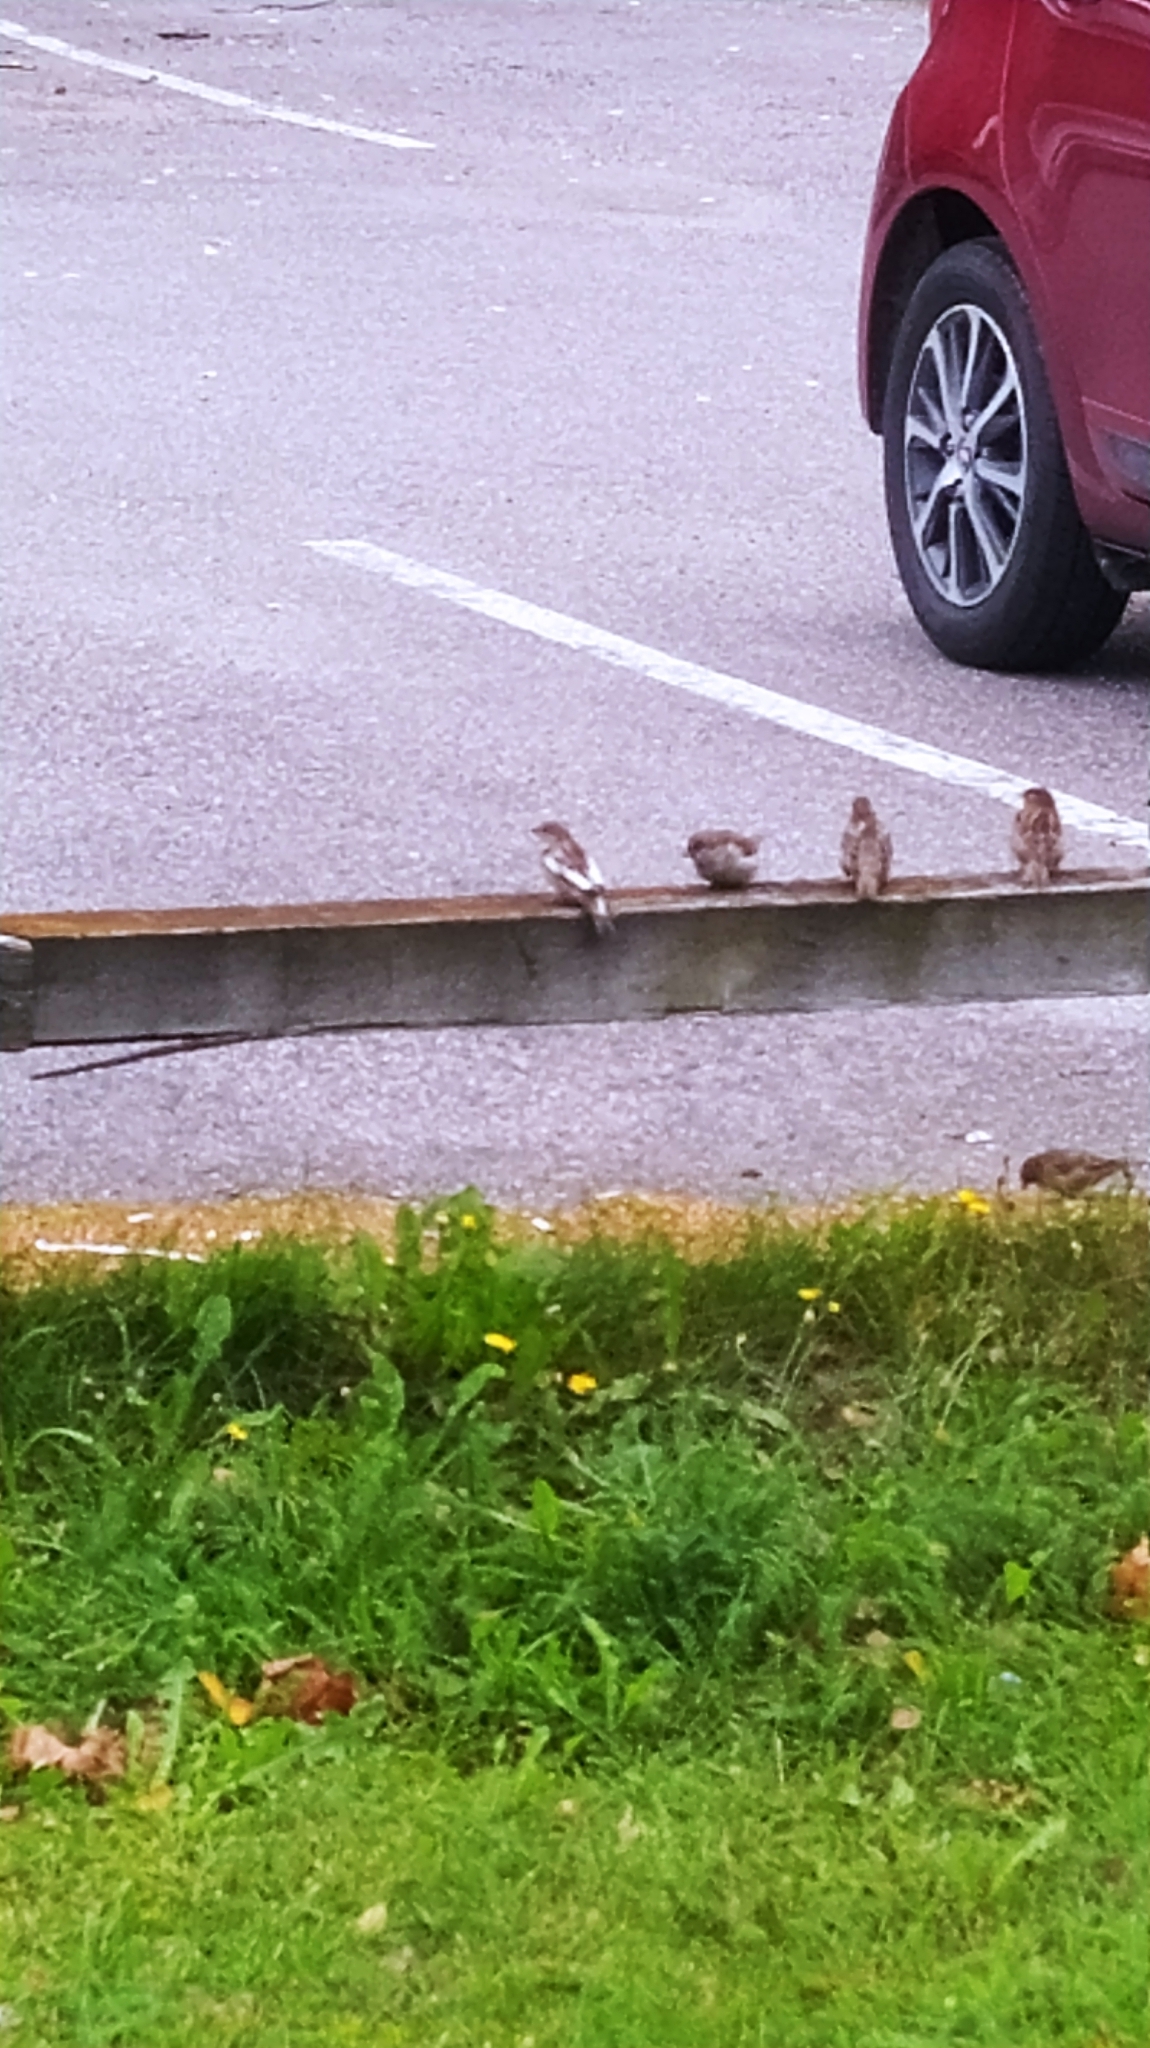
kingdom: Animalia
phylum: Chordata
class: Aves
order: Passeriformes
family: Passeridae
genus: Passer
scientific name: Passer domesticus
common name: House sparrow
